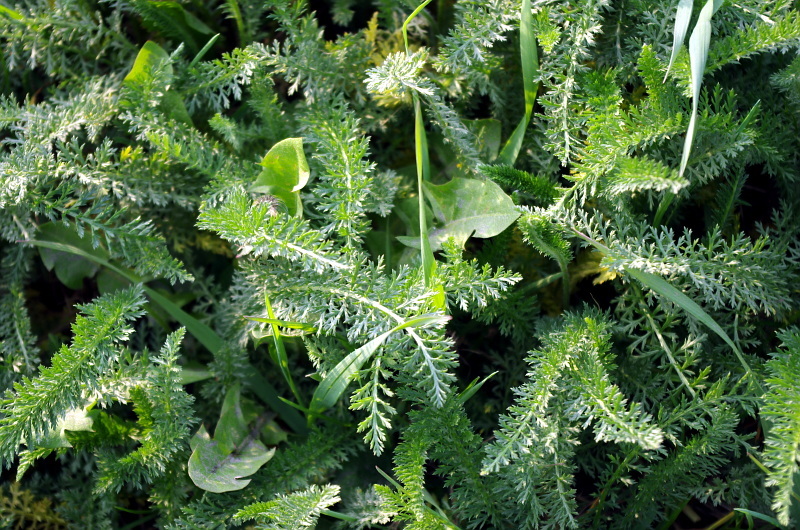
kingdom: Plantae
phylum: Tracheophyta
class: Magnoliopsida
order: Asterales
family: Asteraceae
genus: Achillea
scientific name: Achillea millefolium
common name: Yarrow
